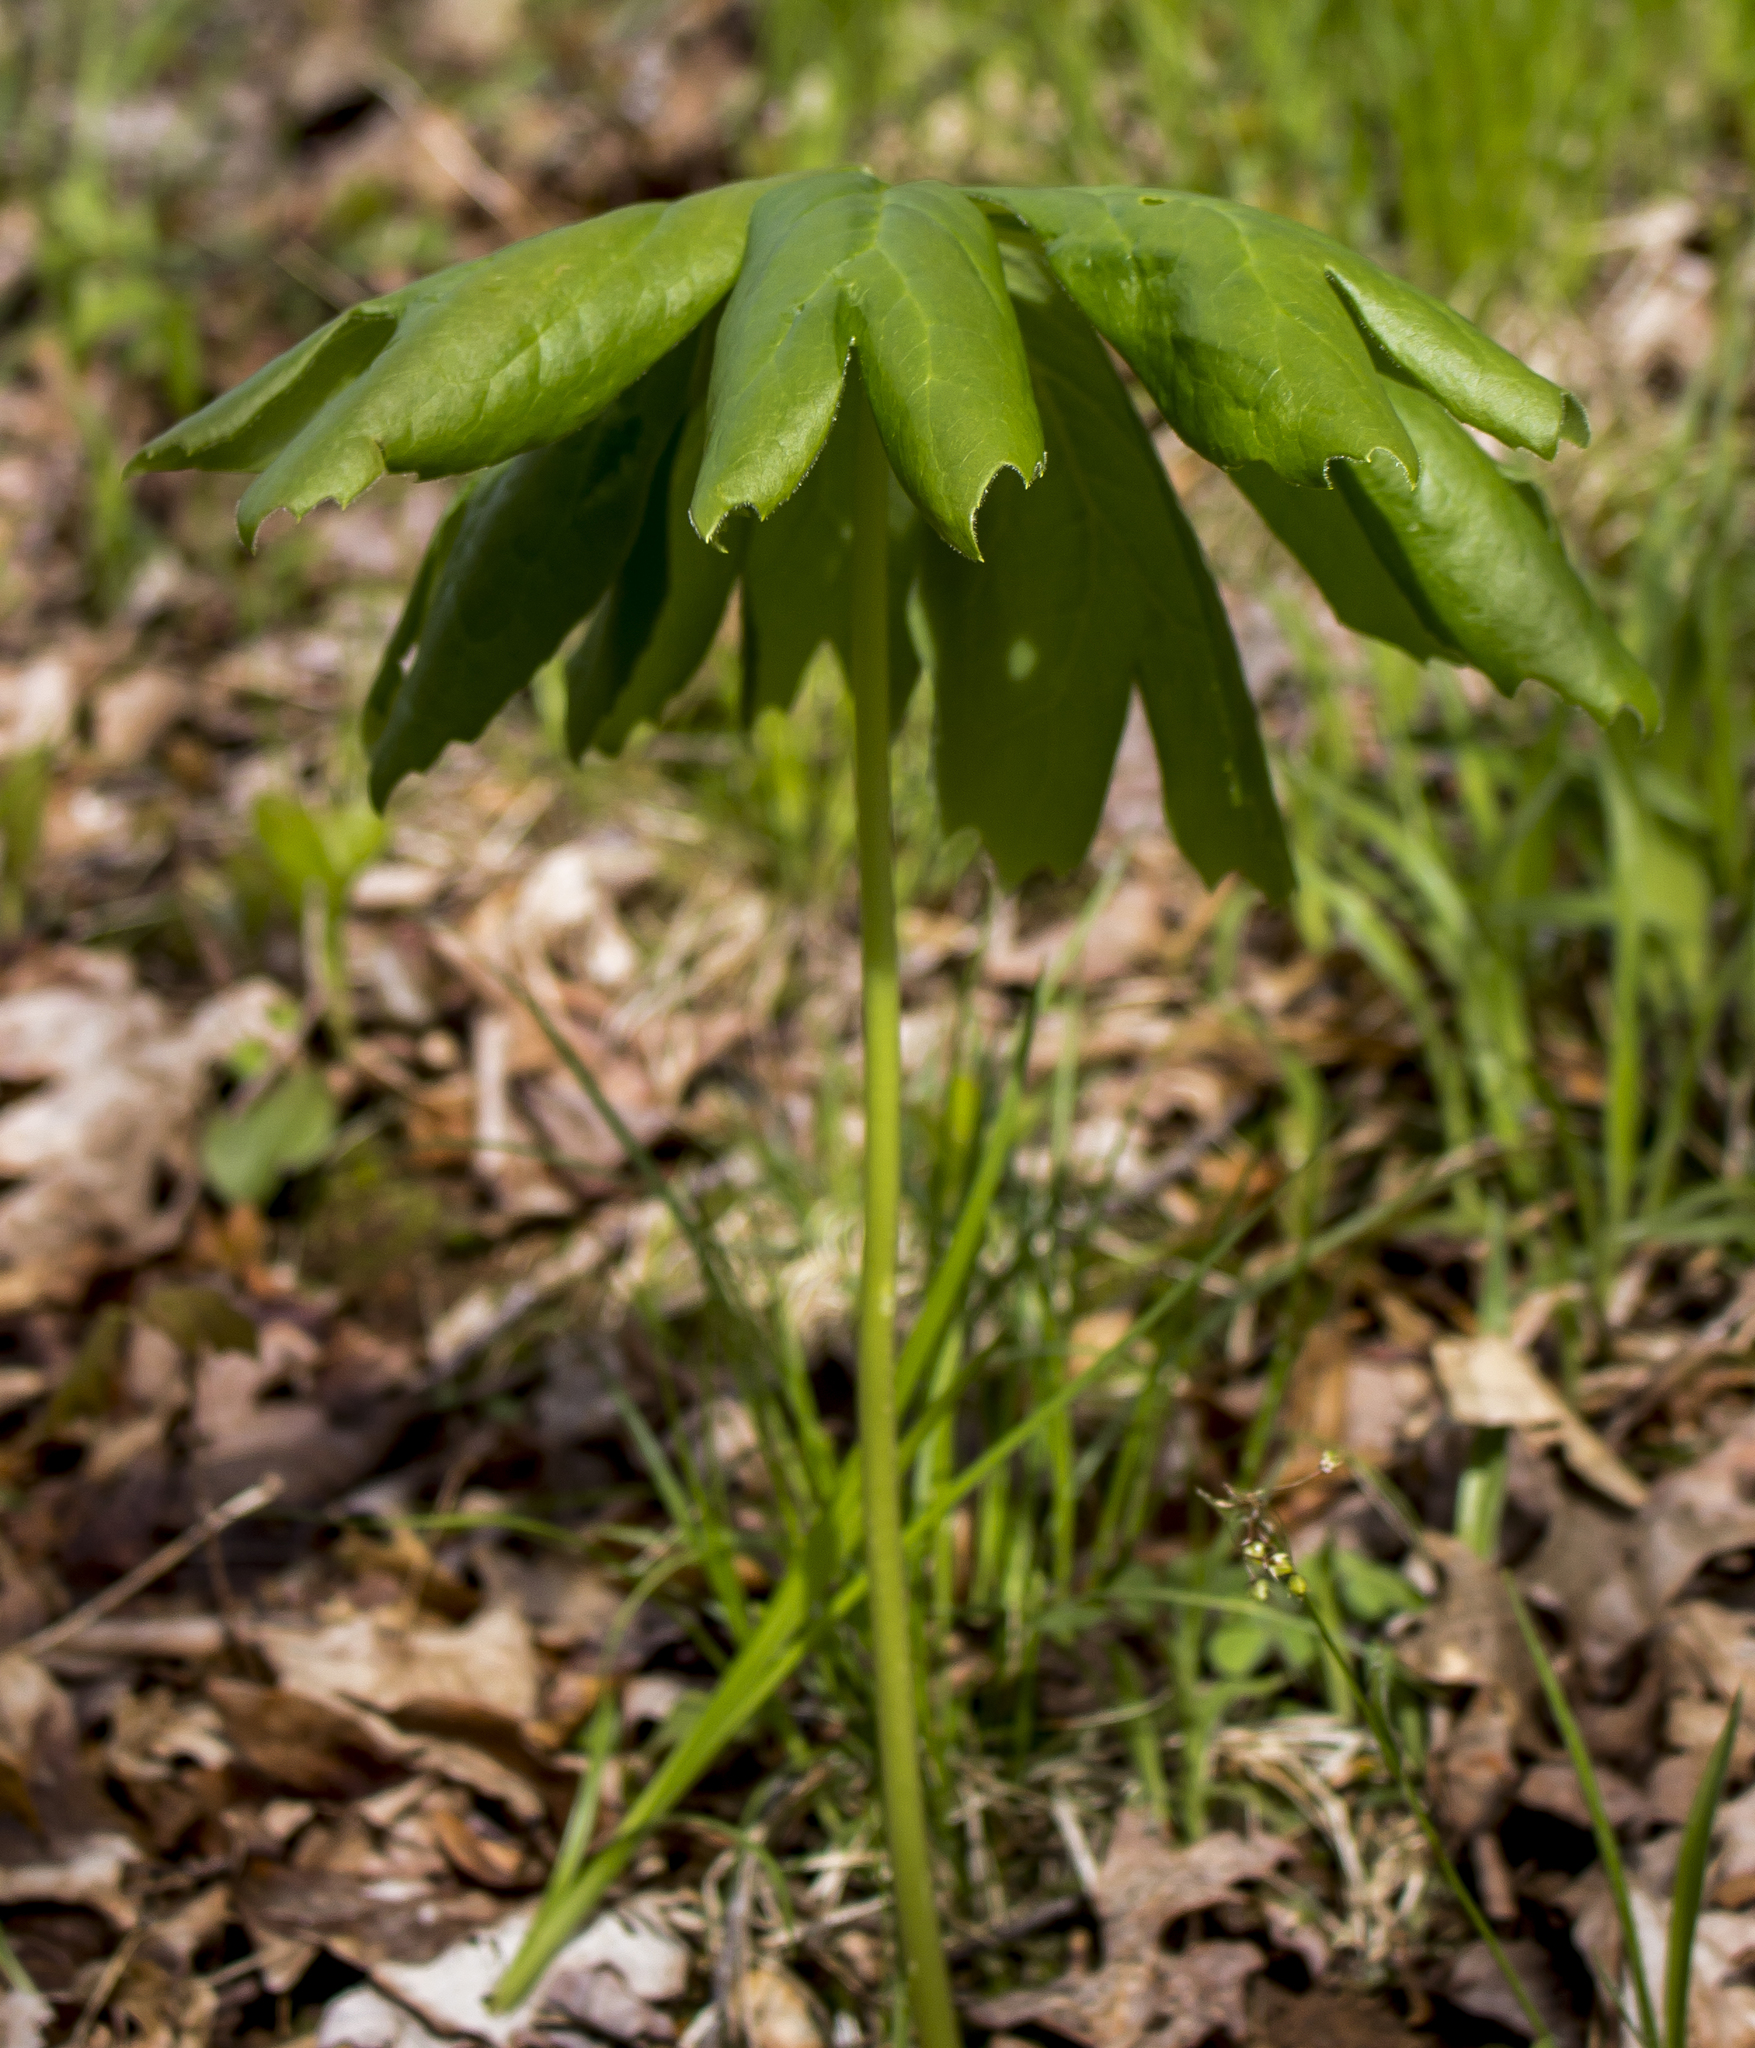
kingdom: Plantae
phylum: Tracheophyta
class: Magnoliopsida
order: Ranunculales
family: Berberidaceae
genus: Podophyllum
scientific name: Podophyllum peltatum
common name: Wild mandrake
